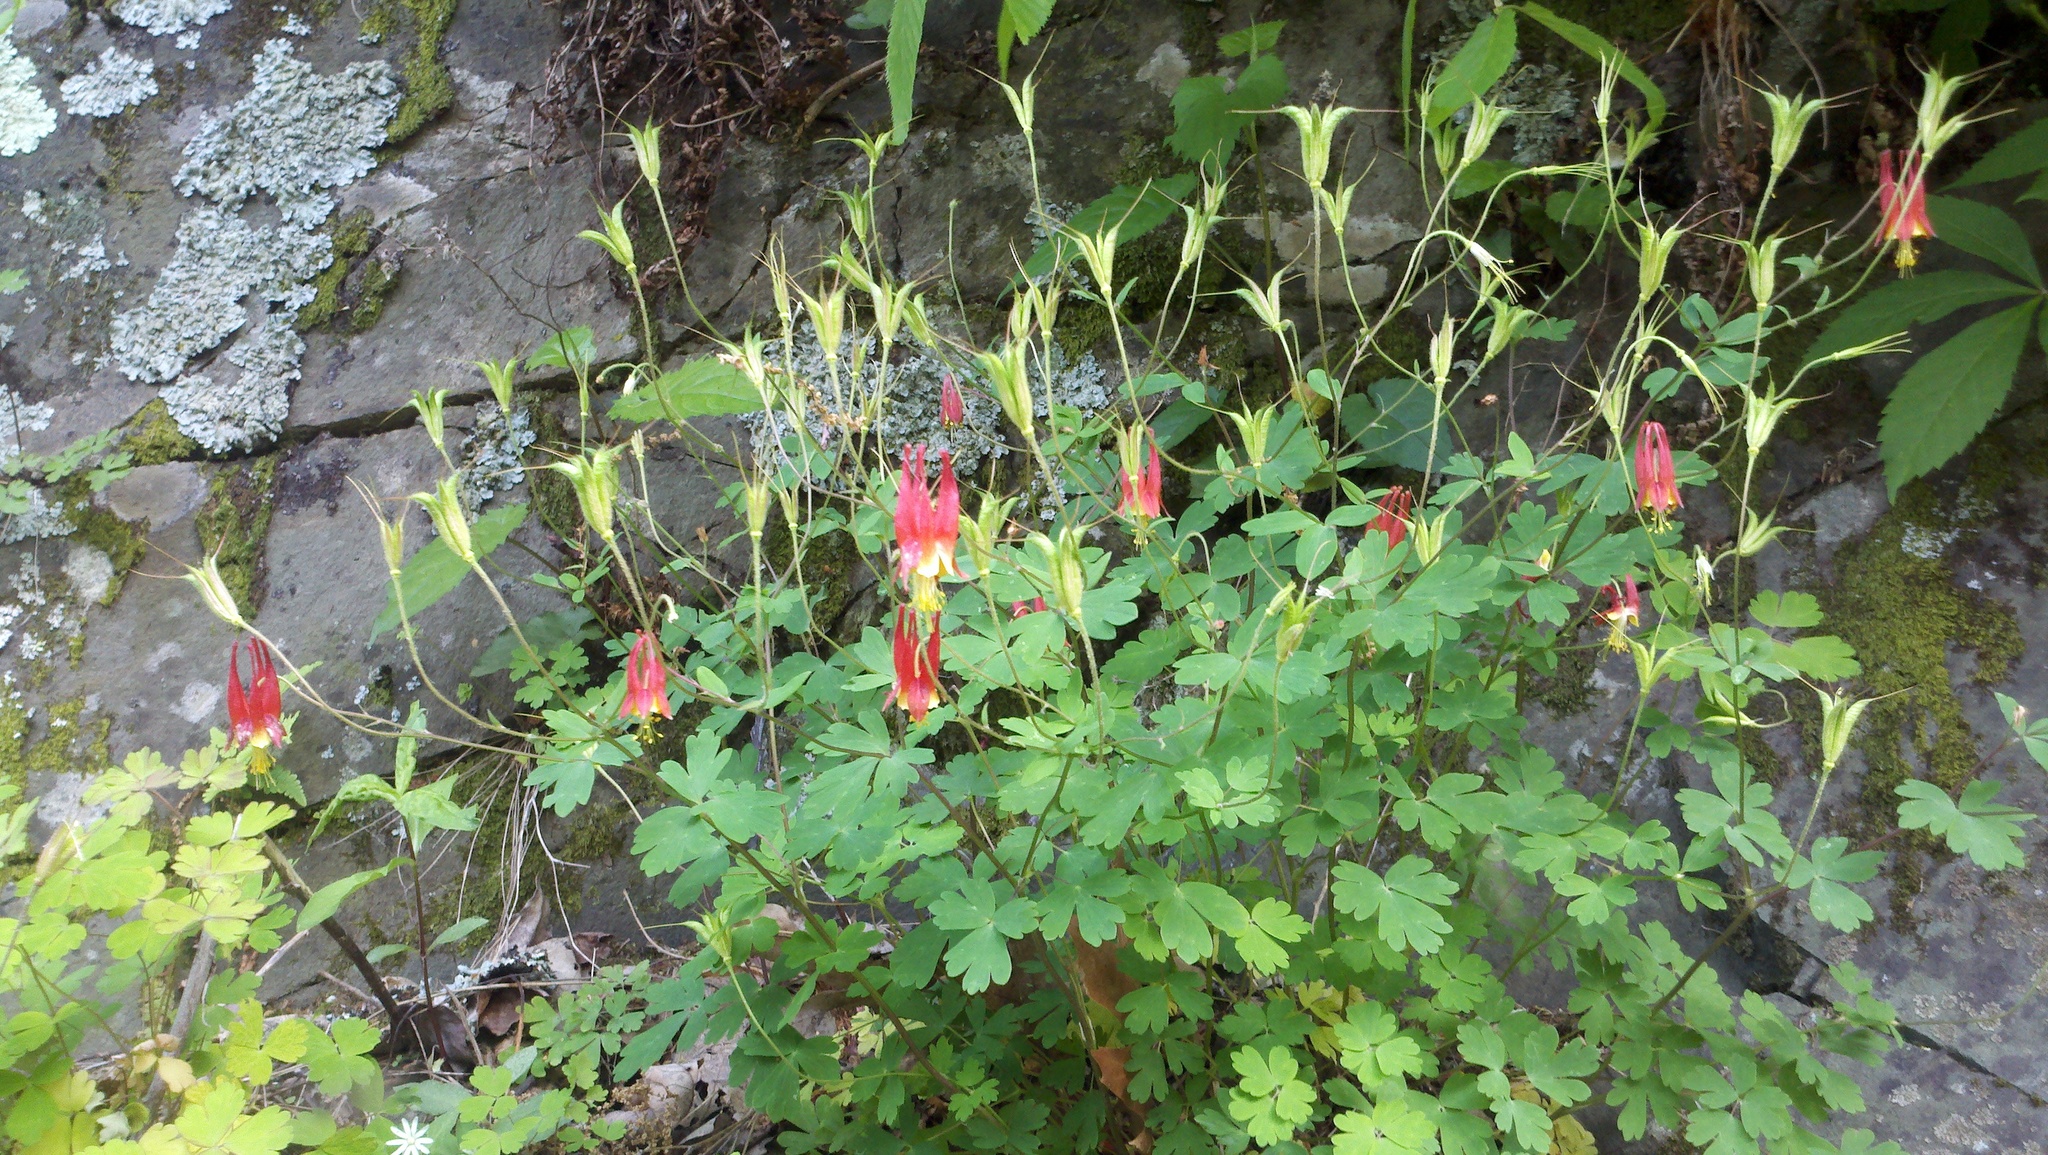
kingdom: Plantae
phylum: Tracheophyta
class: Magnoliopsida
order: Ranunculales
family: Ranunculaceae
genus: Aquilegia
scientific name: Aquilegia canadensis
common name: American columbine
